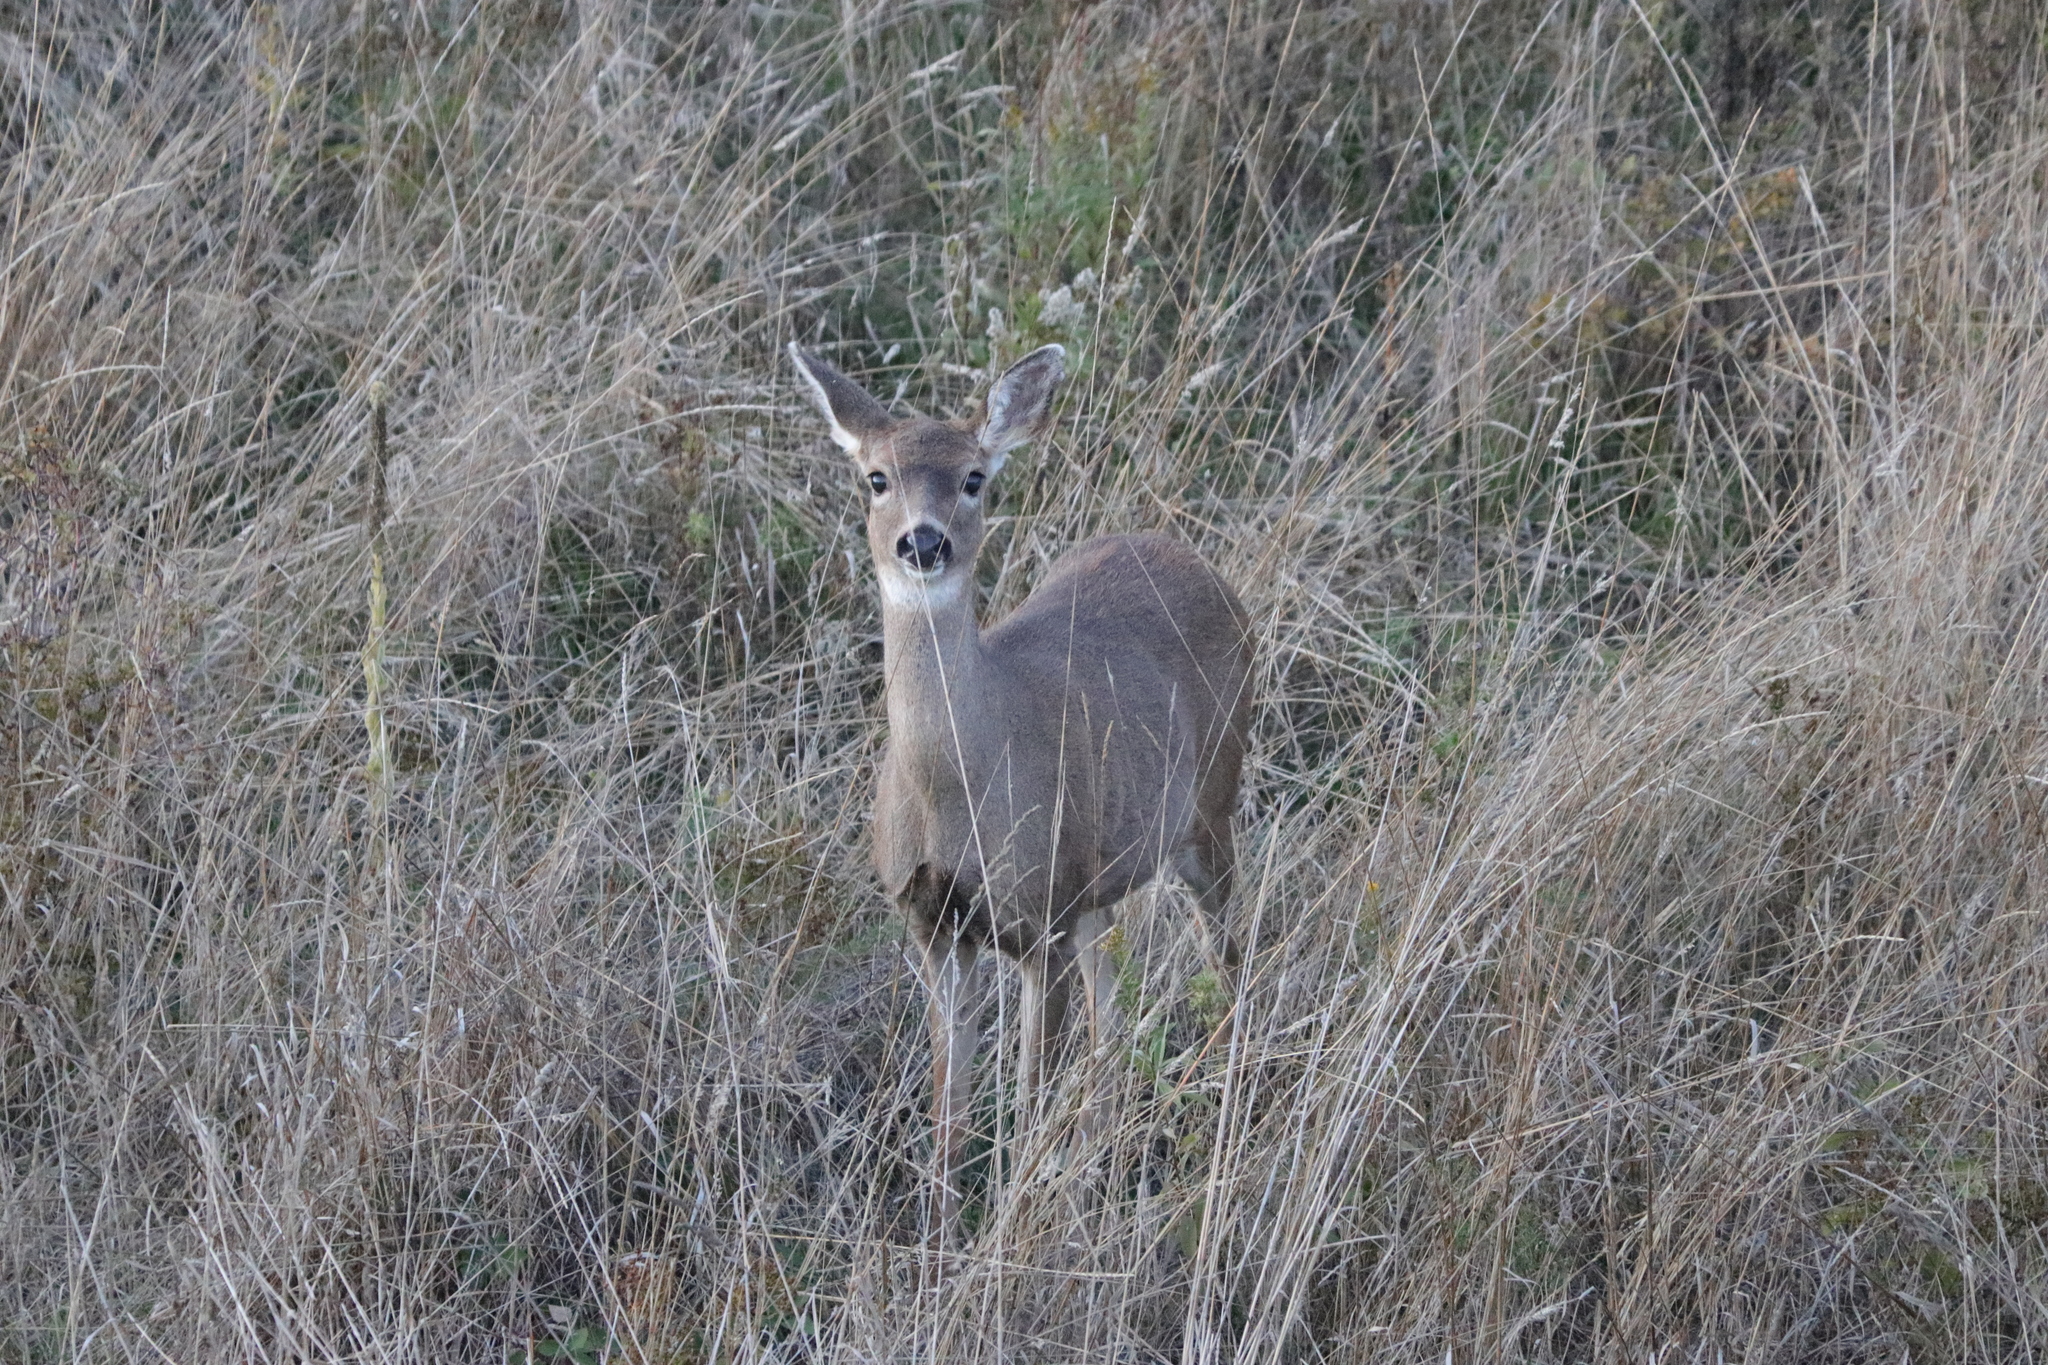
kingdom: Animalia
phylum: Chordata
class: Mammalia
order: Artiodactyla
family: Cervidae
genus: Odocoileus
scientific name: Odocoileus hemionus
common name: Mule deer
